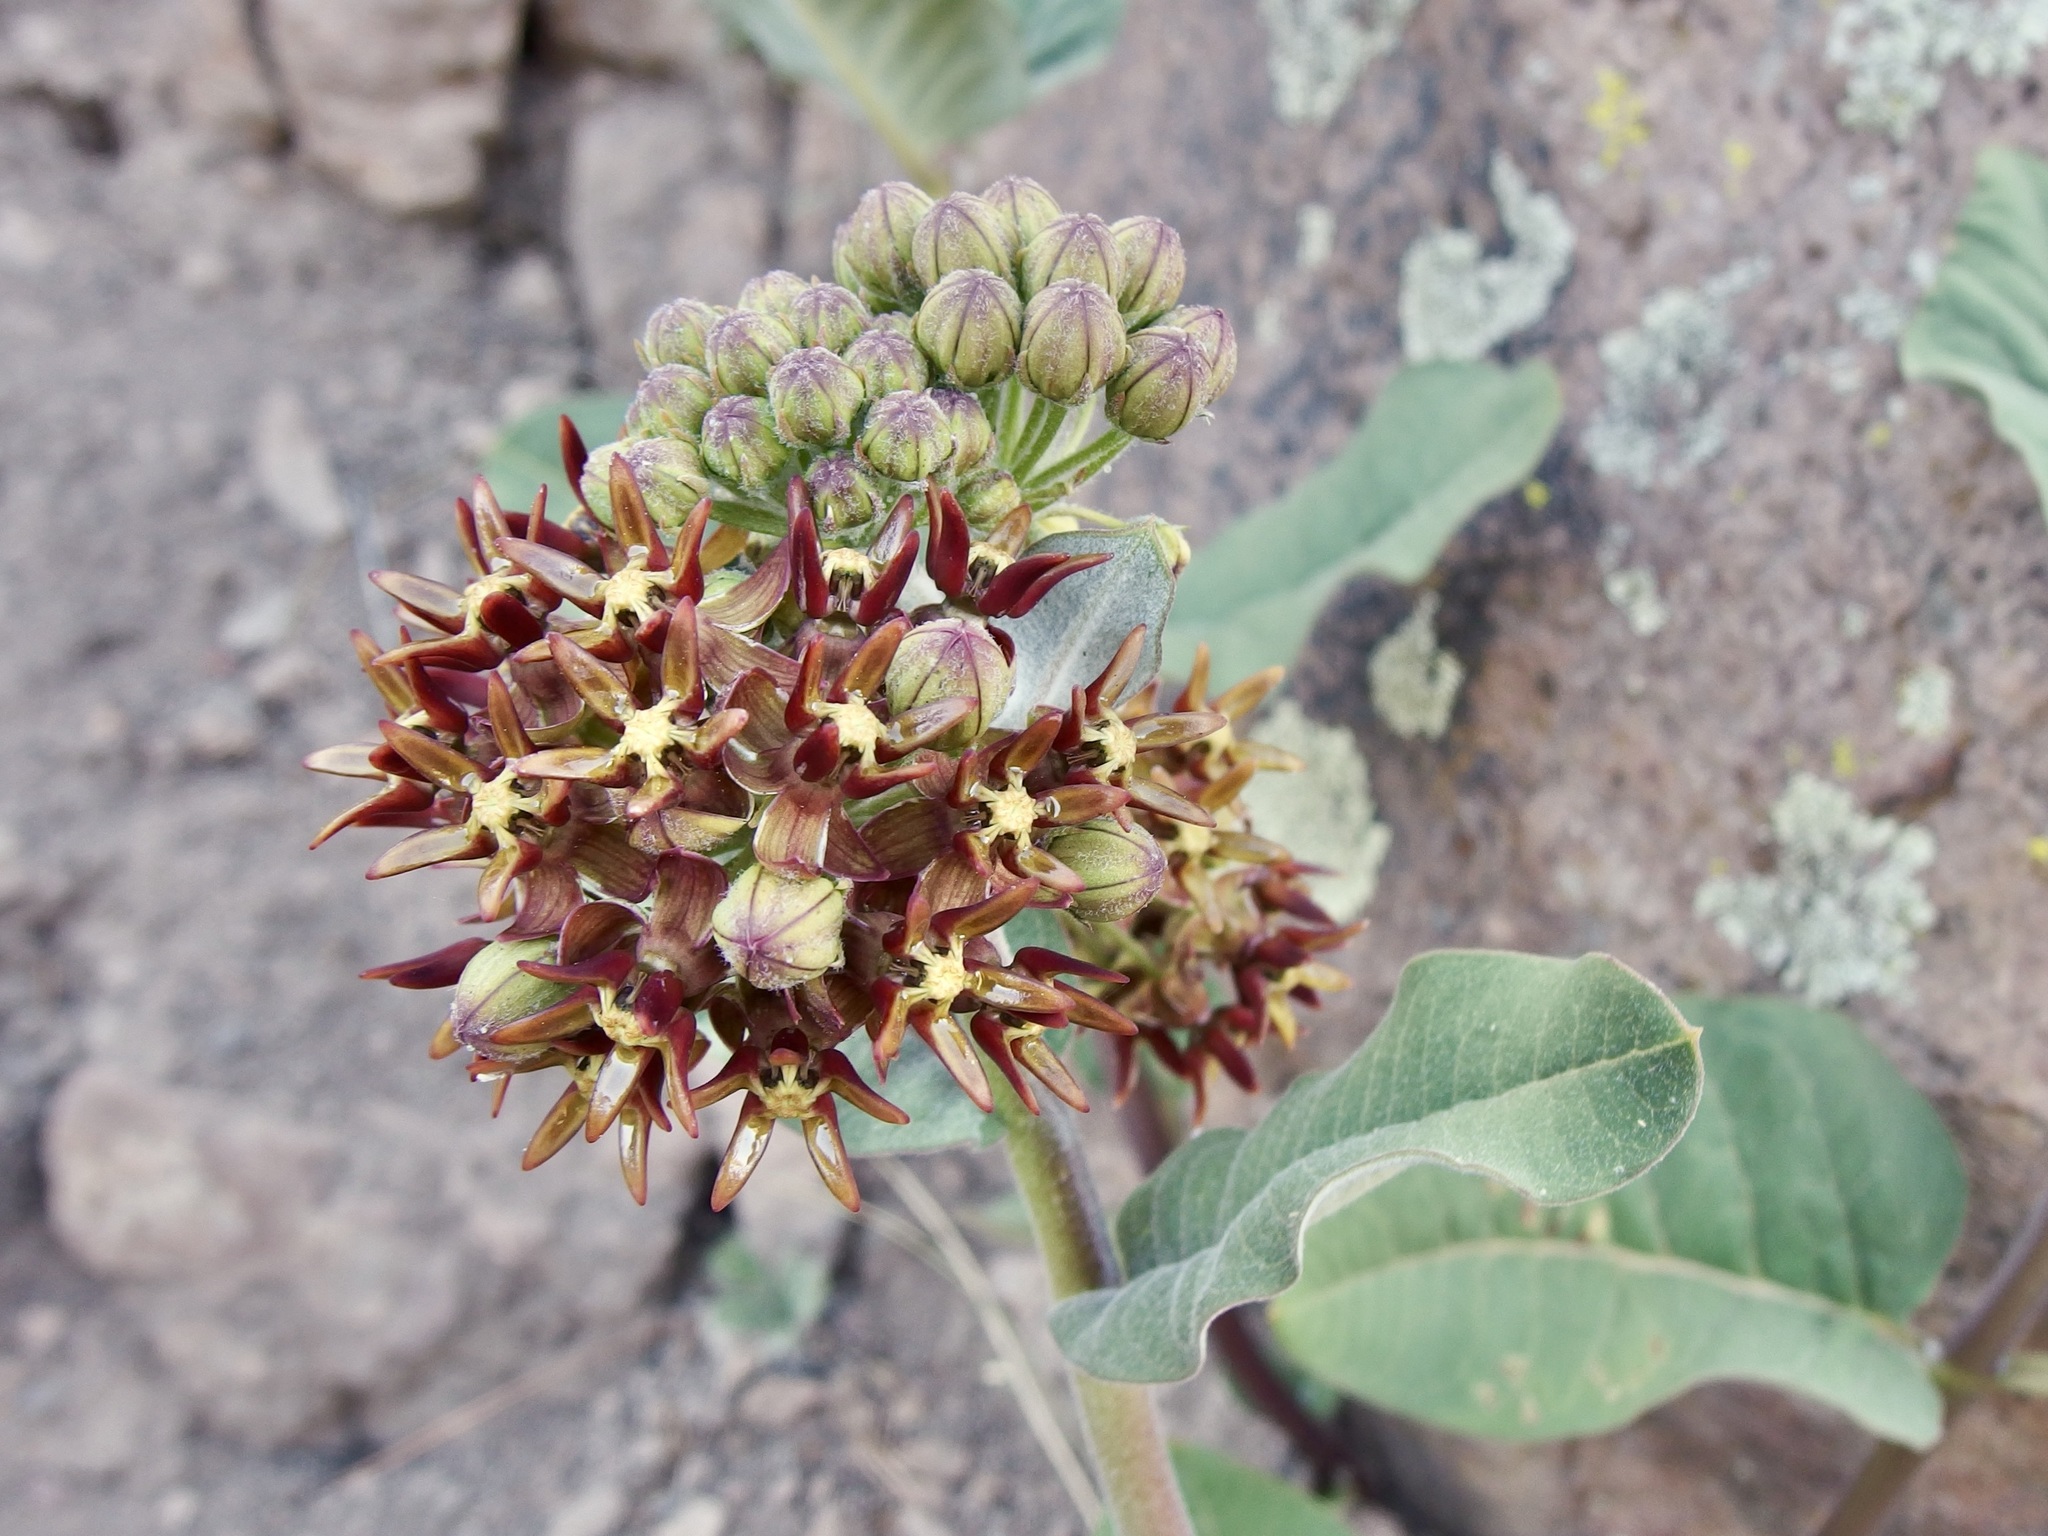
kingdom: Plantae
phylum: Tracheophyta
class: Magnoliopsida
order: Gentianales
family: Apocynaceae
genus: Asclepias
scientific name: Asclepias hypoleuca
